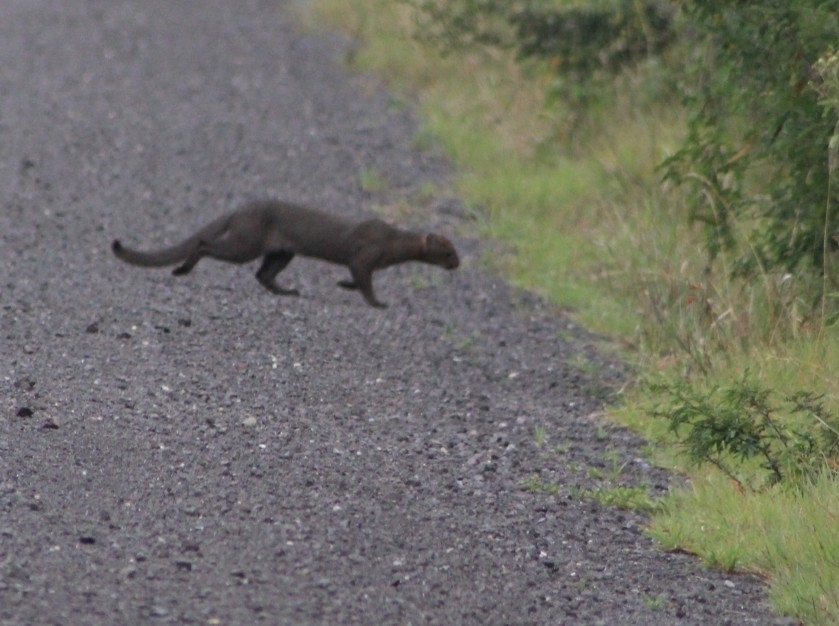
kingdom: Animalia
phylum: Chordata
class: Mammalia
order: Carnivora
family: Felidae
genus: Puma
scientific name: Puma yagouaroundi
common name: Jaguarundi
